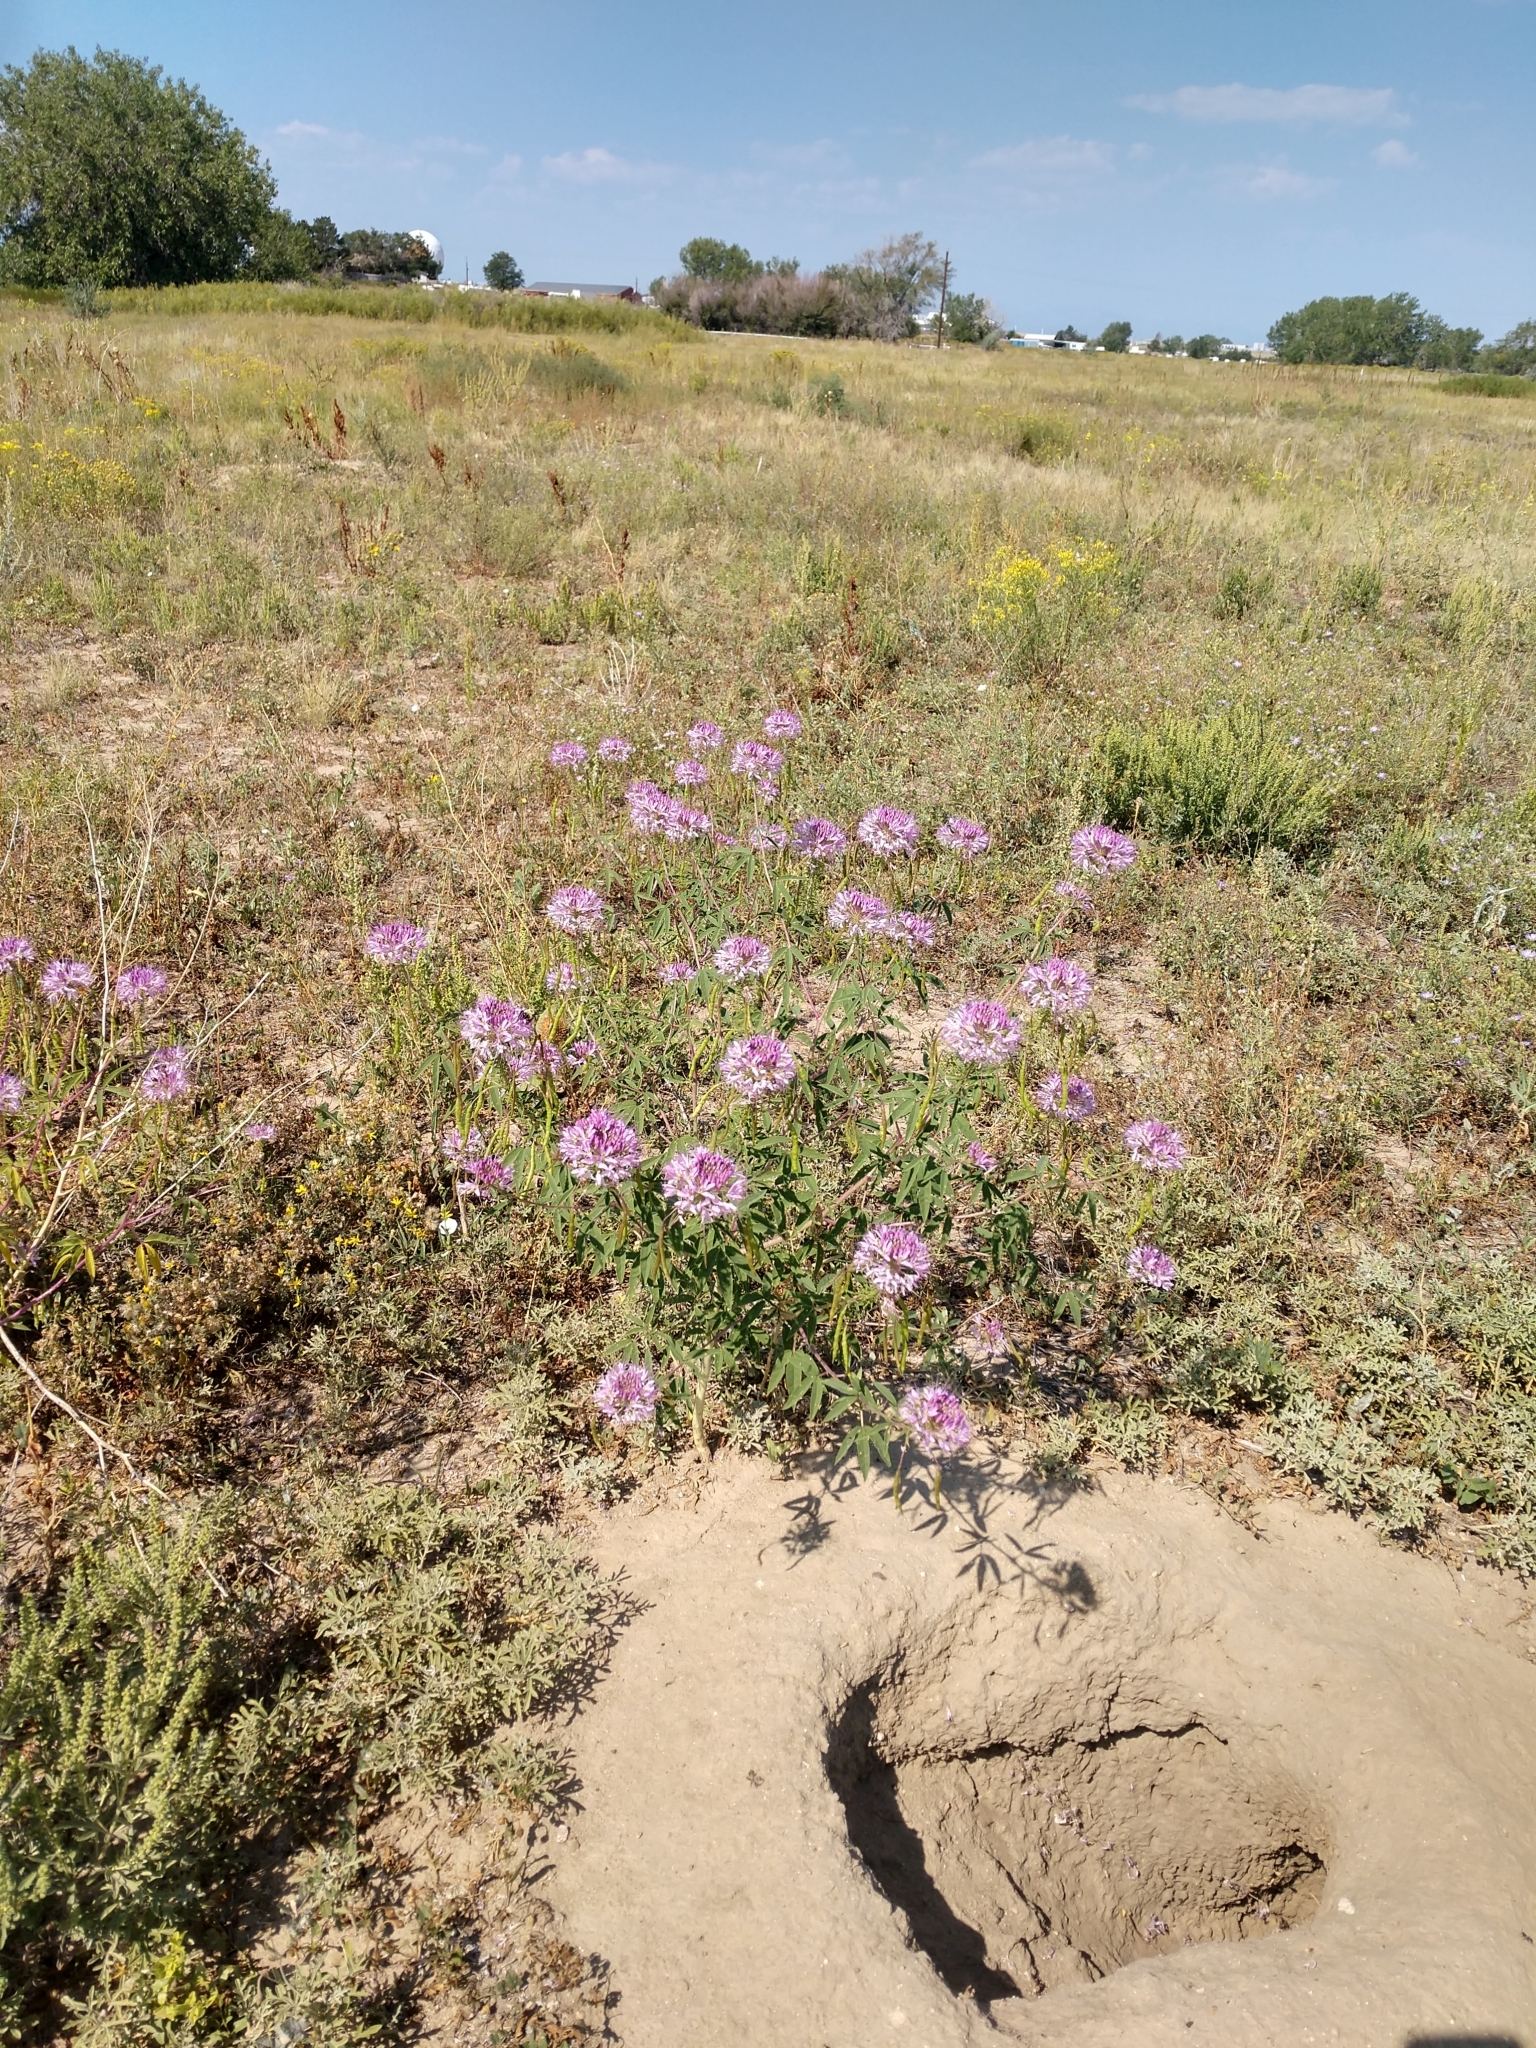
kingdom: Plantae
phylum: Tracheophyta
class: Magnoliopsida
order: Brassicales
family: Cleomaceae
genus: Cleomella
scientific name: Cleomella serrulata
